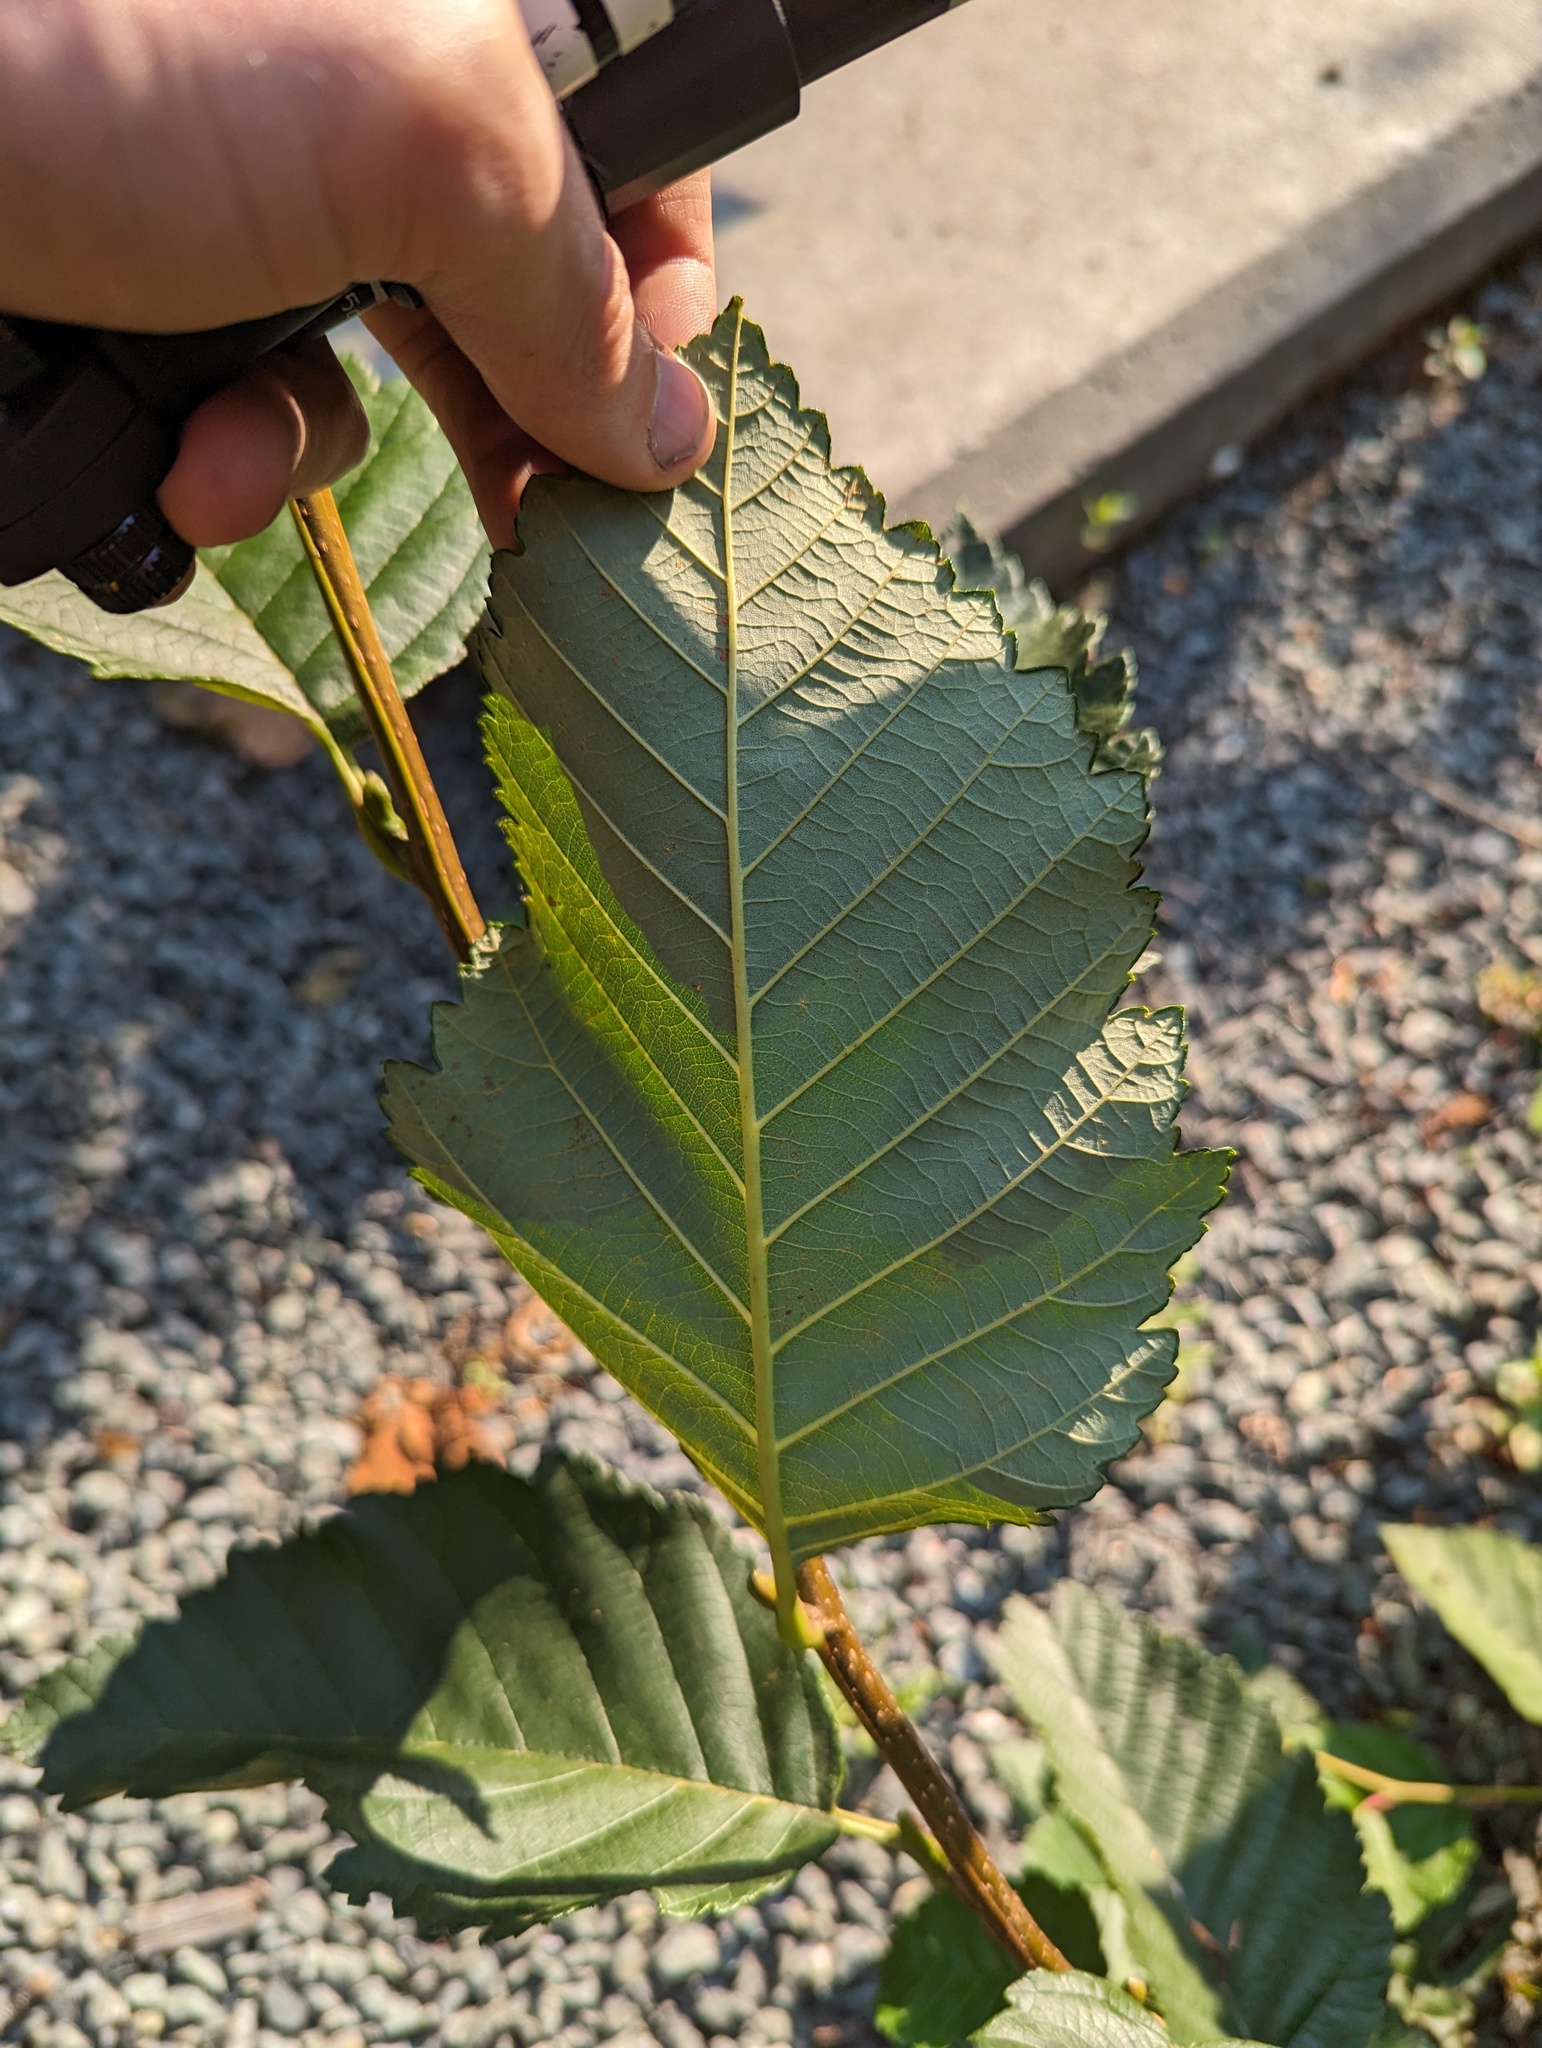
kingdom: Plantae
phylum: Tracheophyta
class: Magnoliopsida
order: Fagales
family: Betulaceae
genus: Alnus
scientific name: Alnus rubra
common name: Red alder
